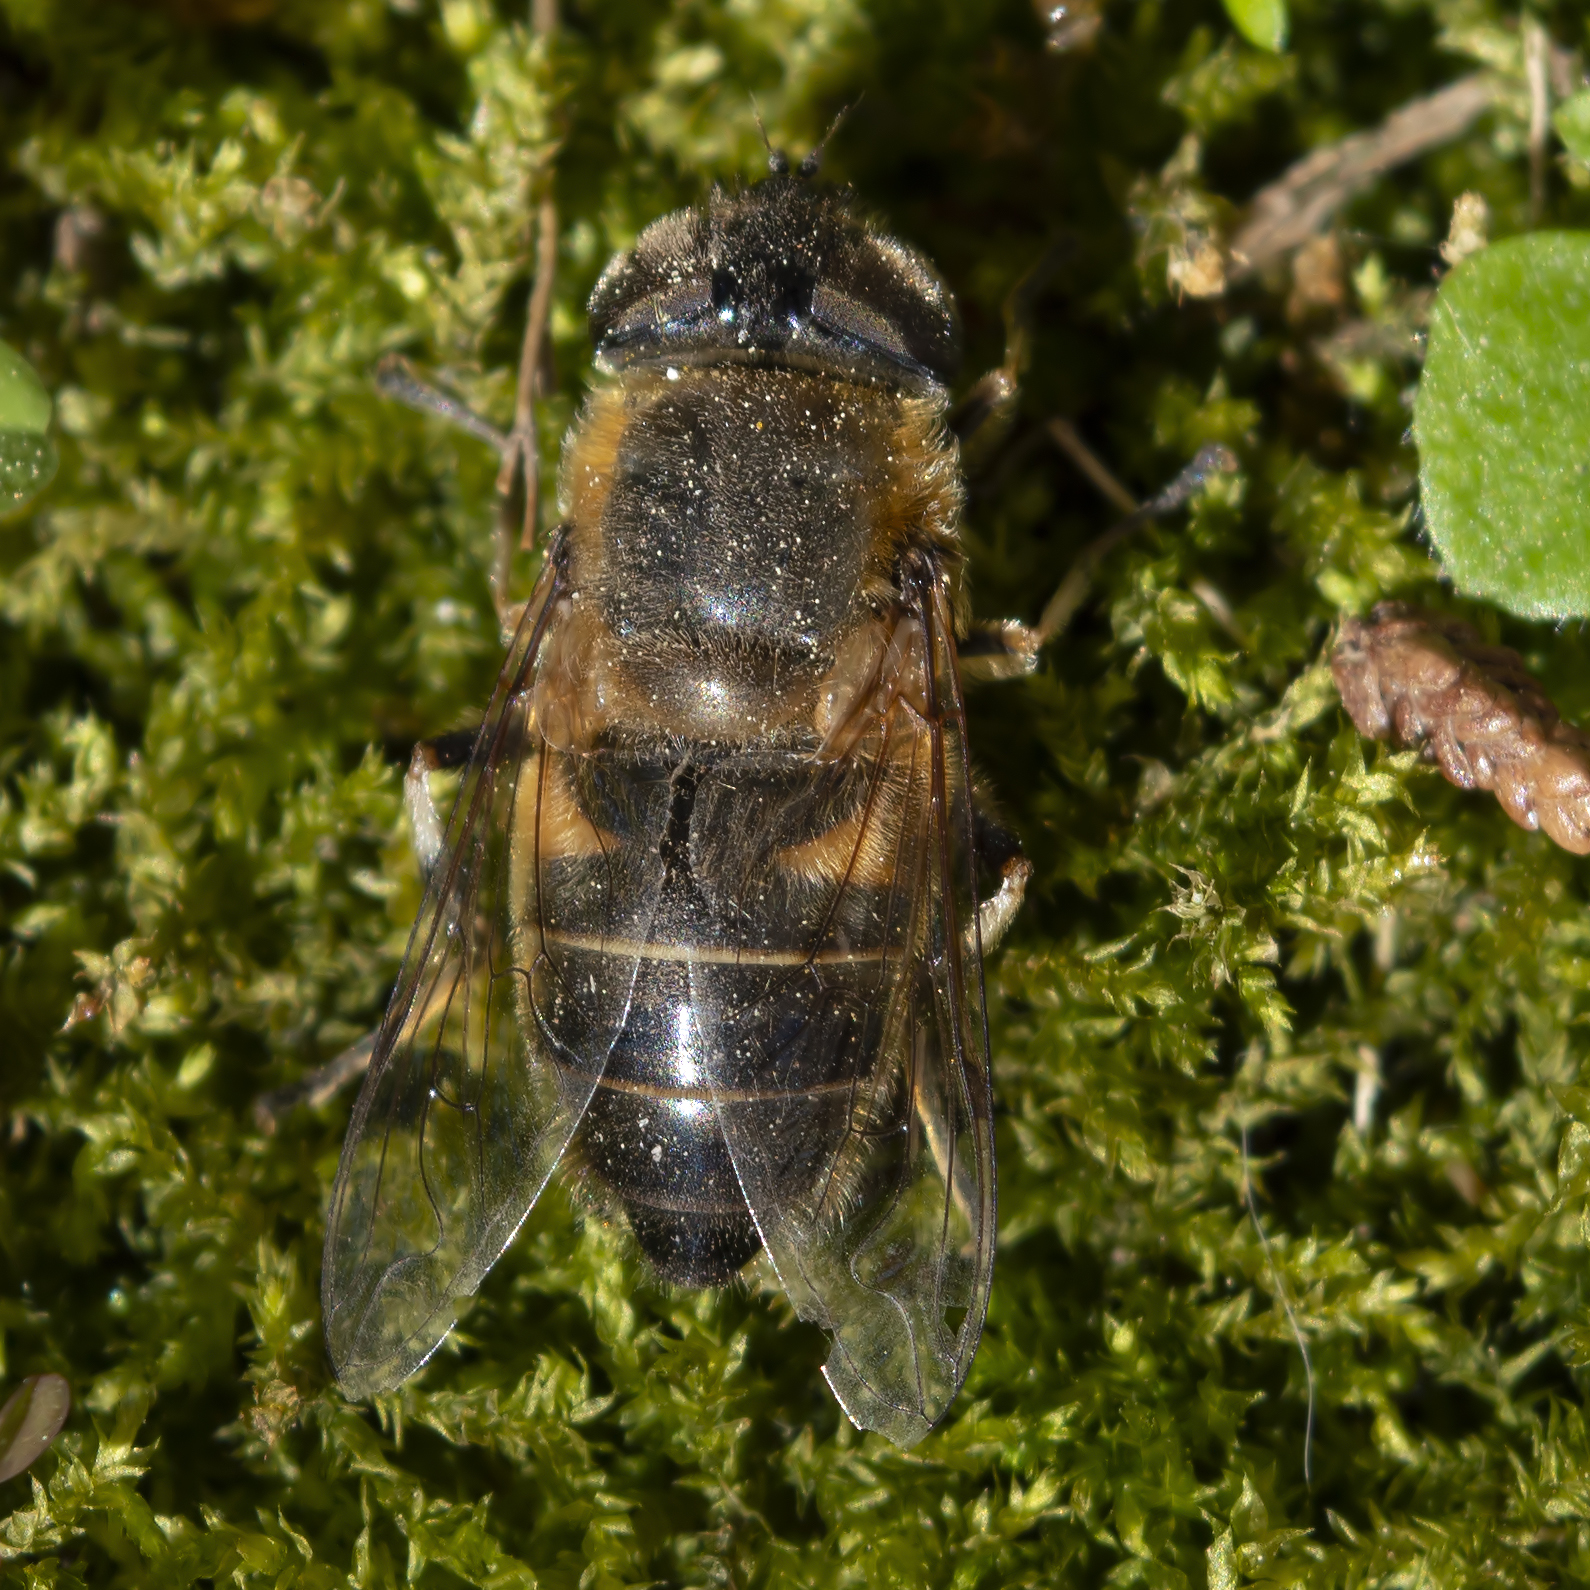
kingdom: Animalia
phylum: Arthropoda
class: Insecta
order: Diptera
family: Syrphidae
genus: Eristalis
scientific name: Eristalis pertinax
